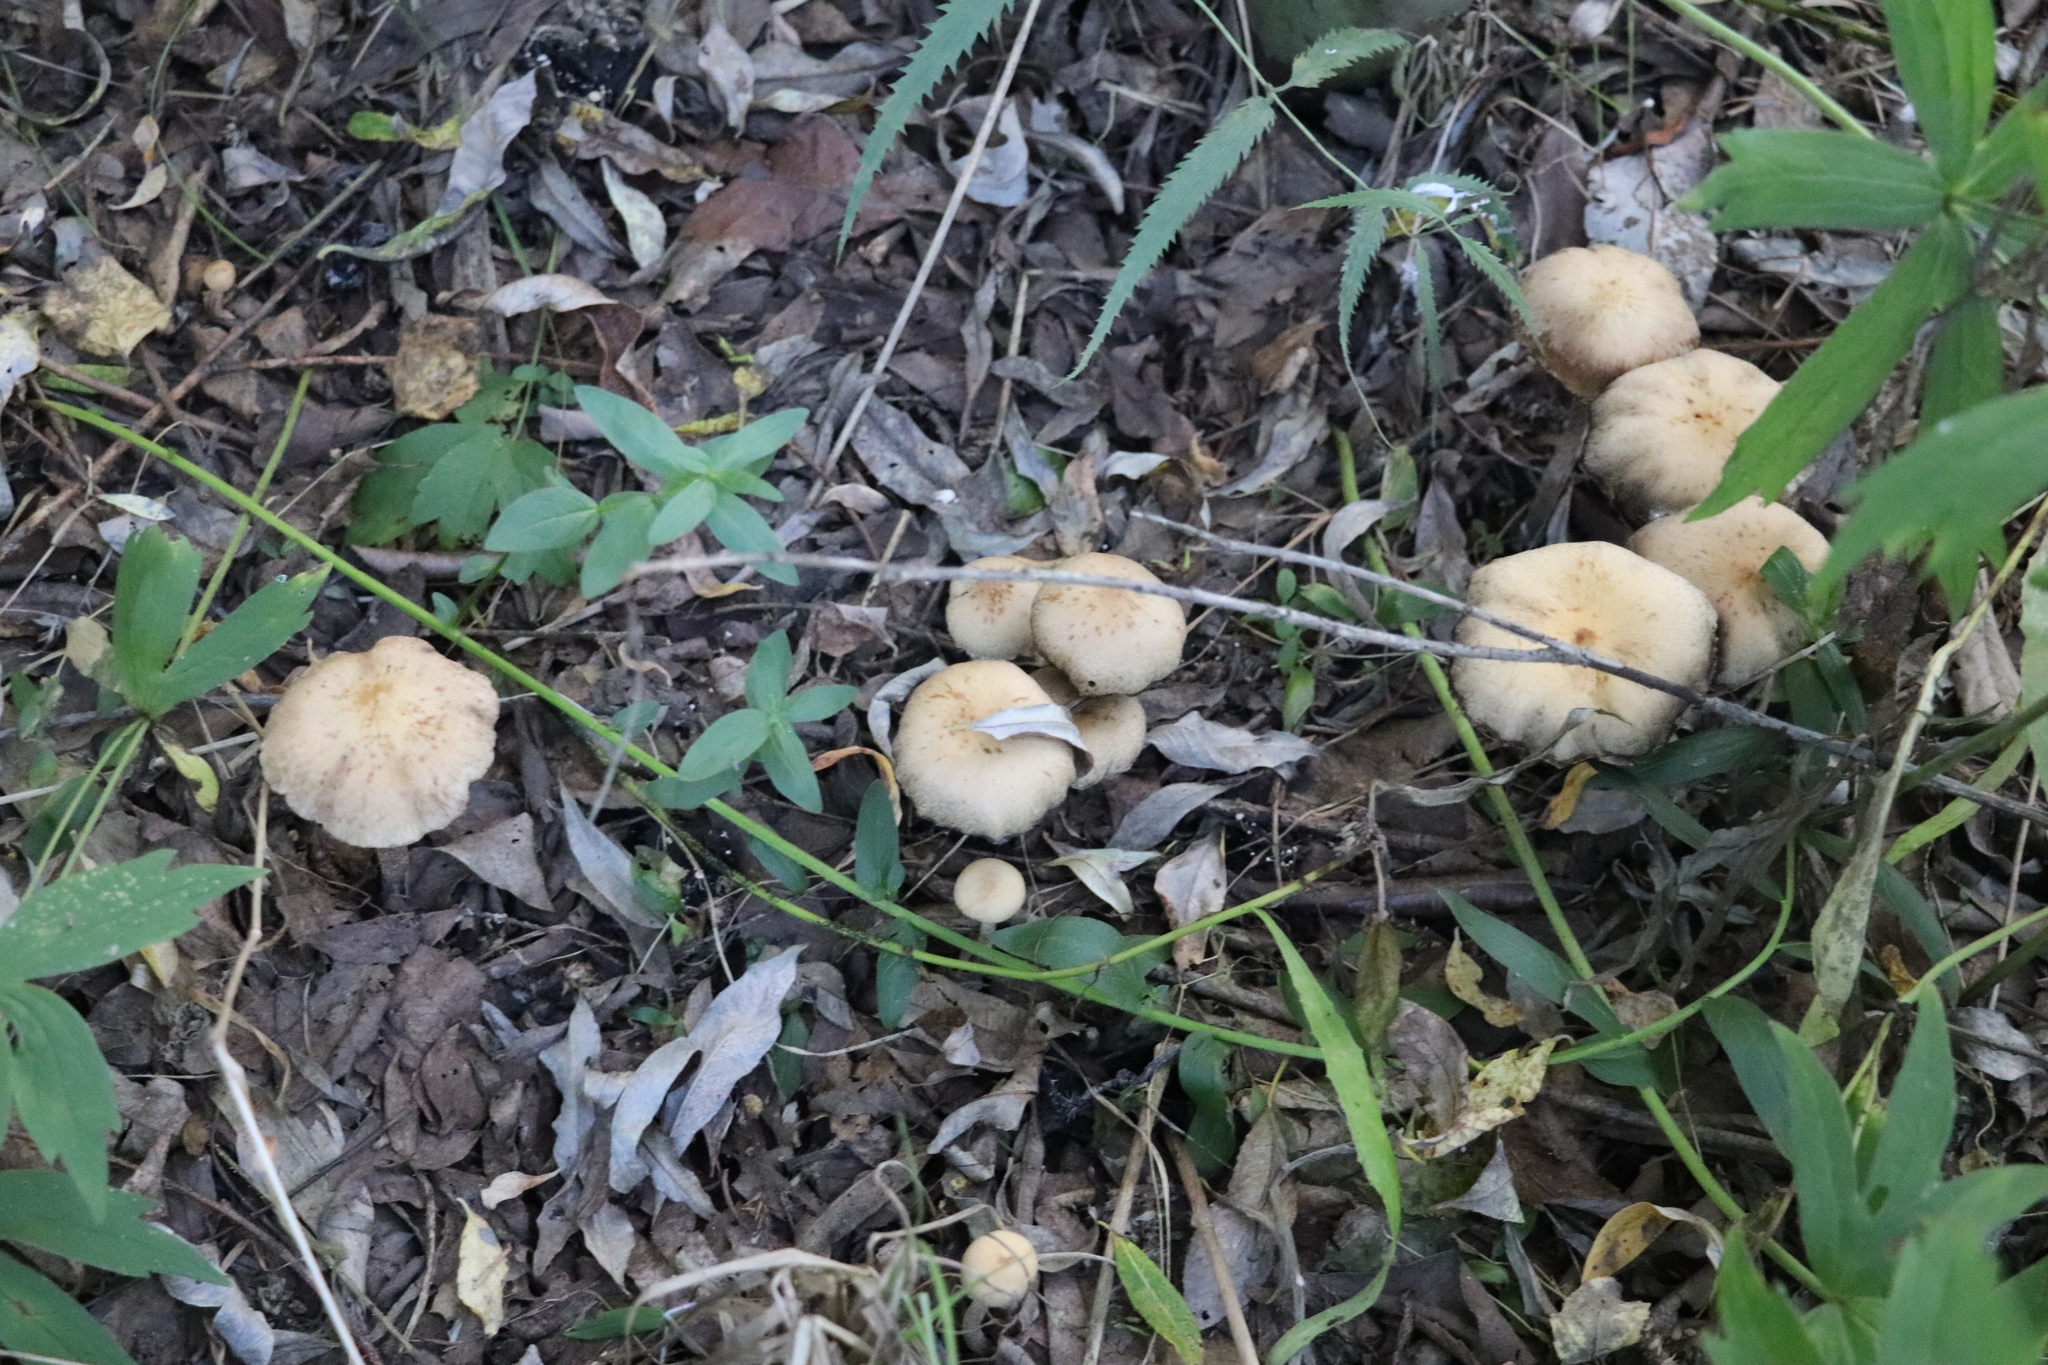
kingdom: Fungi
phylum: Basidiomycota
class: Agaricomycetes
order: Agaricales
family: Psathyrellaceae
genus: Lacrymaria
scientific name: Lacrymaria lacrymabunda
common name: Weeping widow
